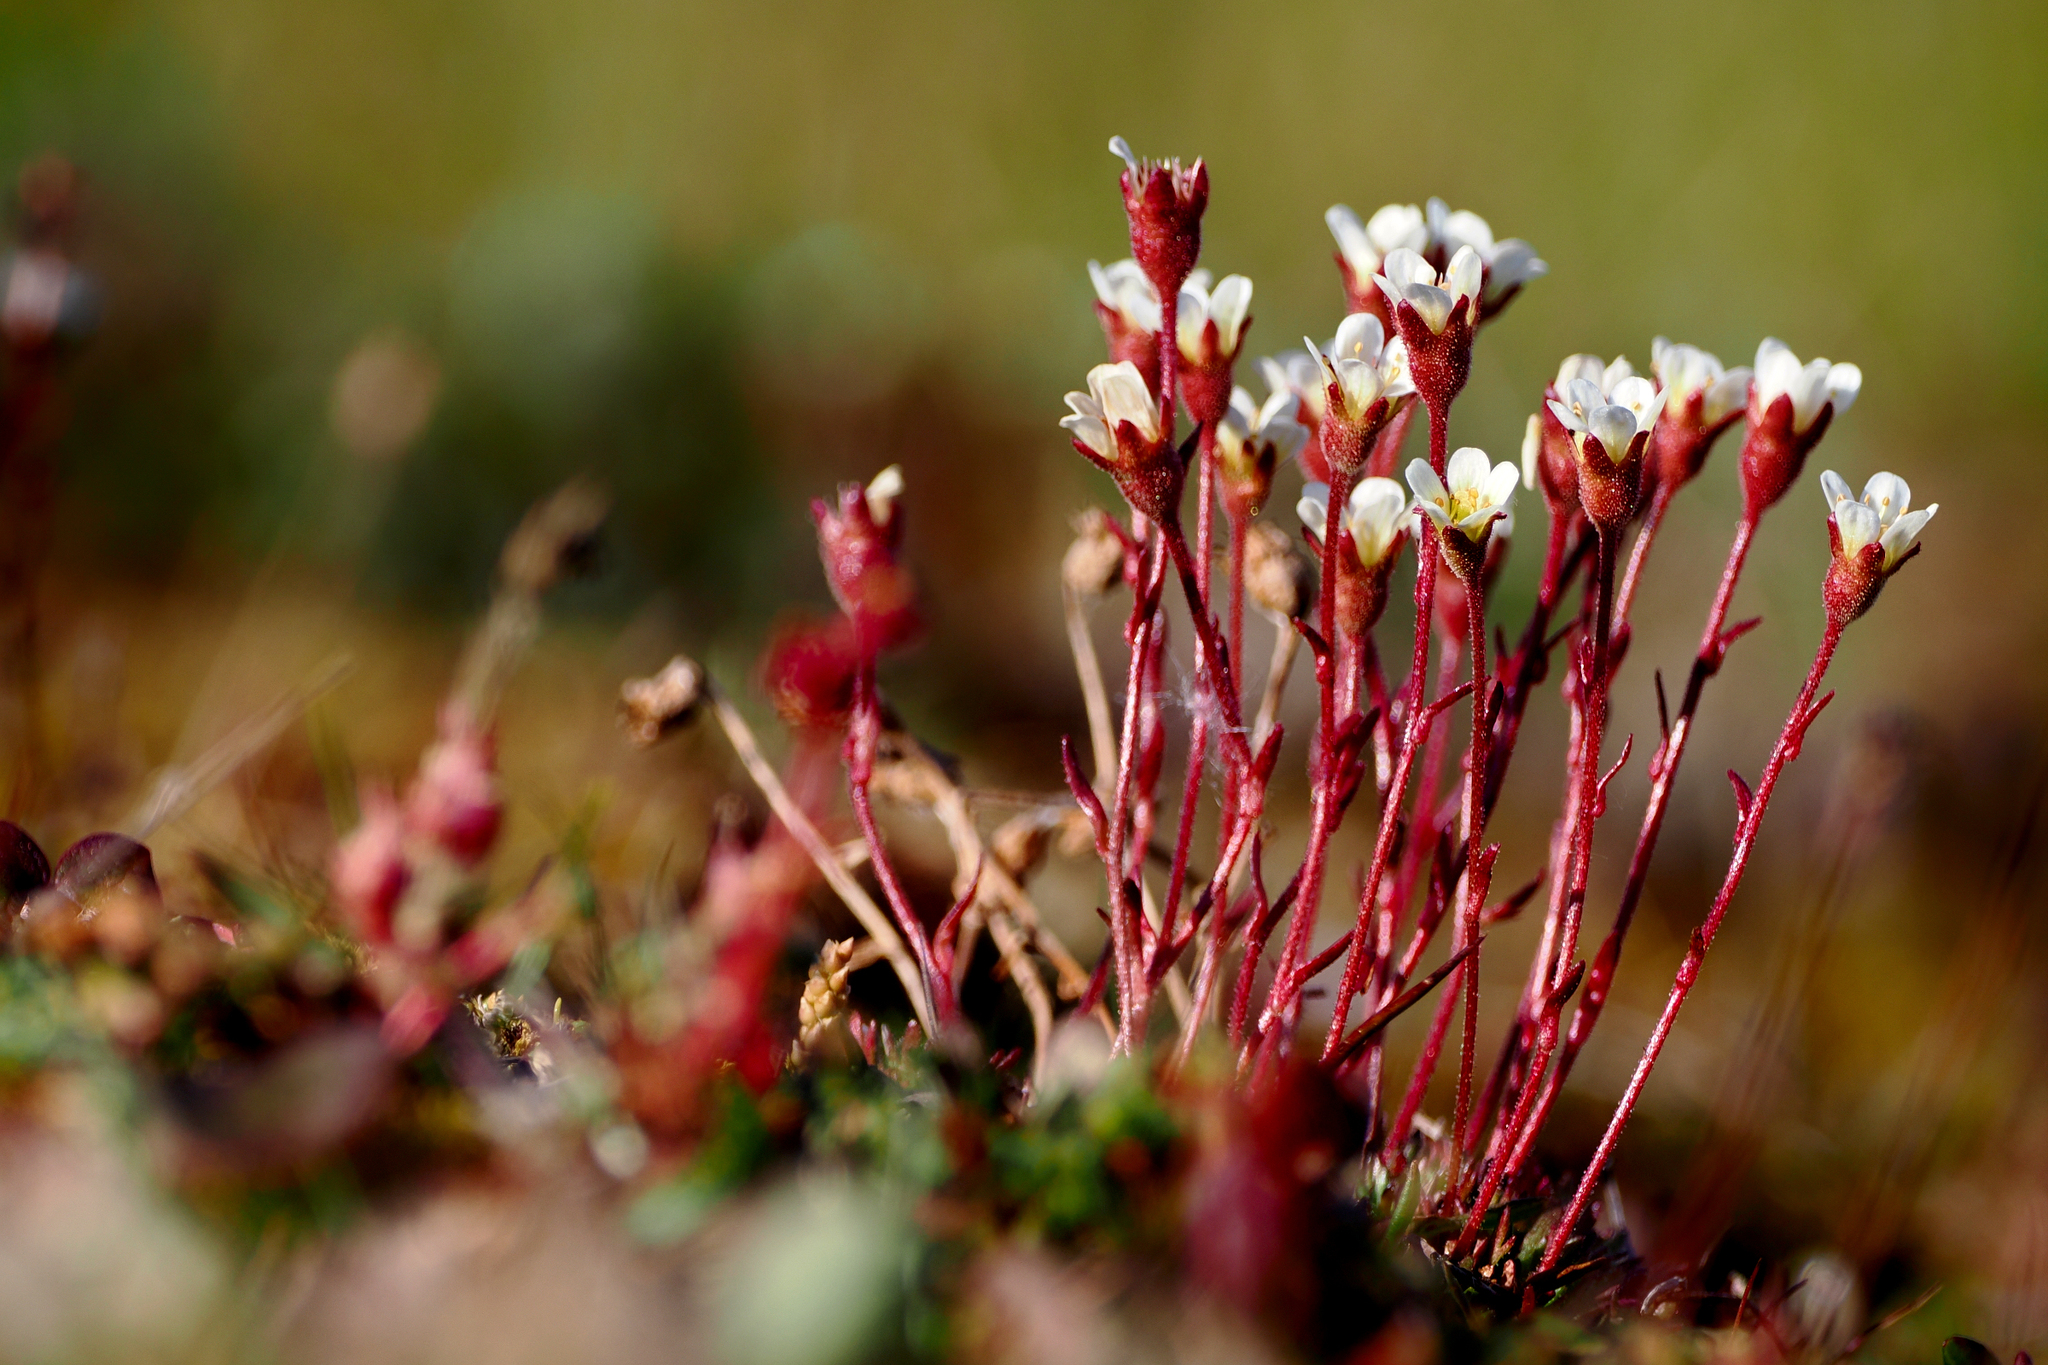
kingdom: Plantae
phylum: Tracheophyta
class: Magnoliopsida
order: Saxifragales
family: Saxifragaceae
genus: Saxifraga
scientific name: Saxifraga cespitosa
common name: Tufted saxifrage
